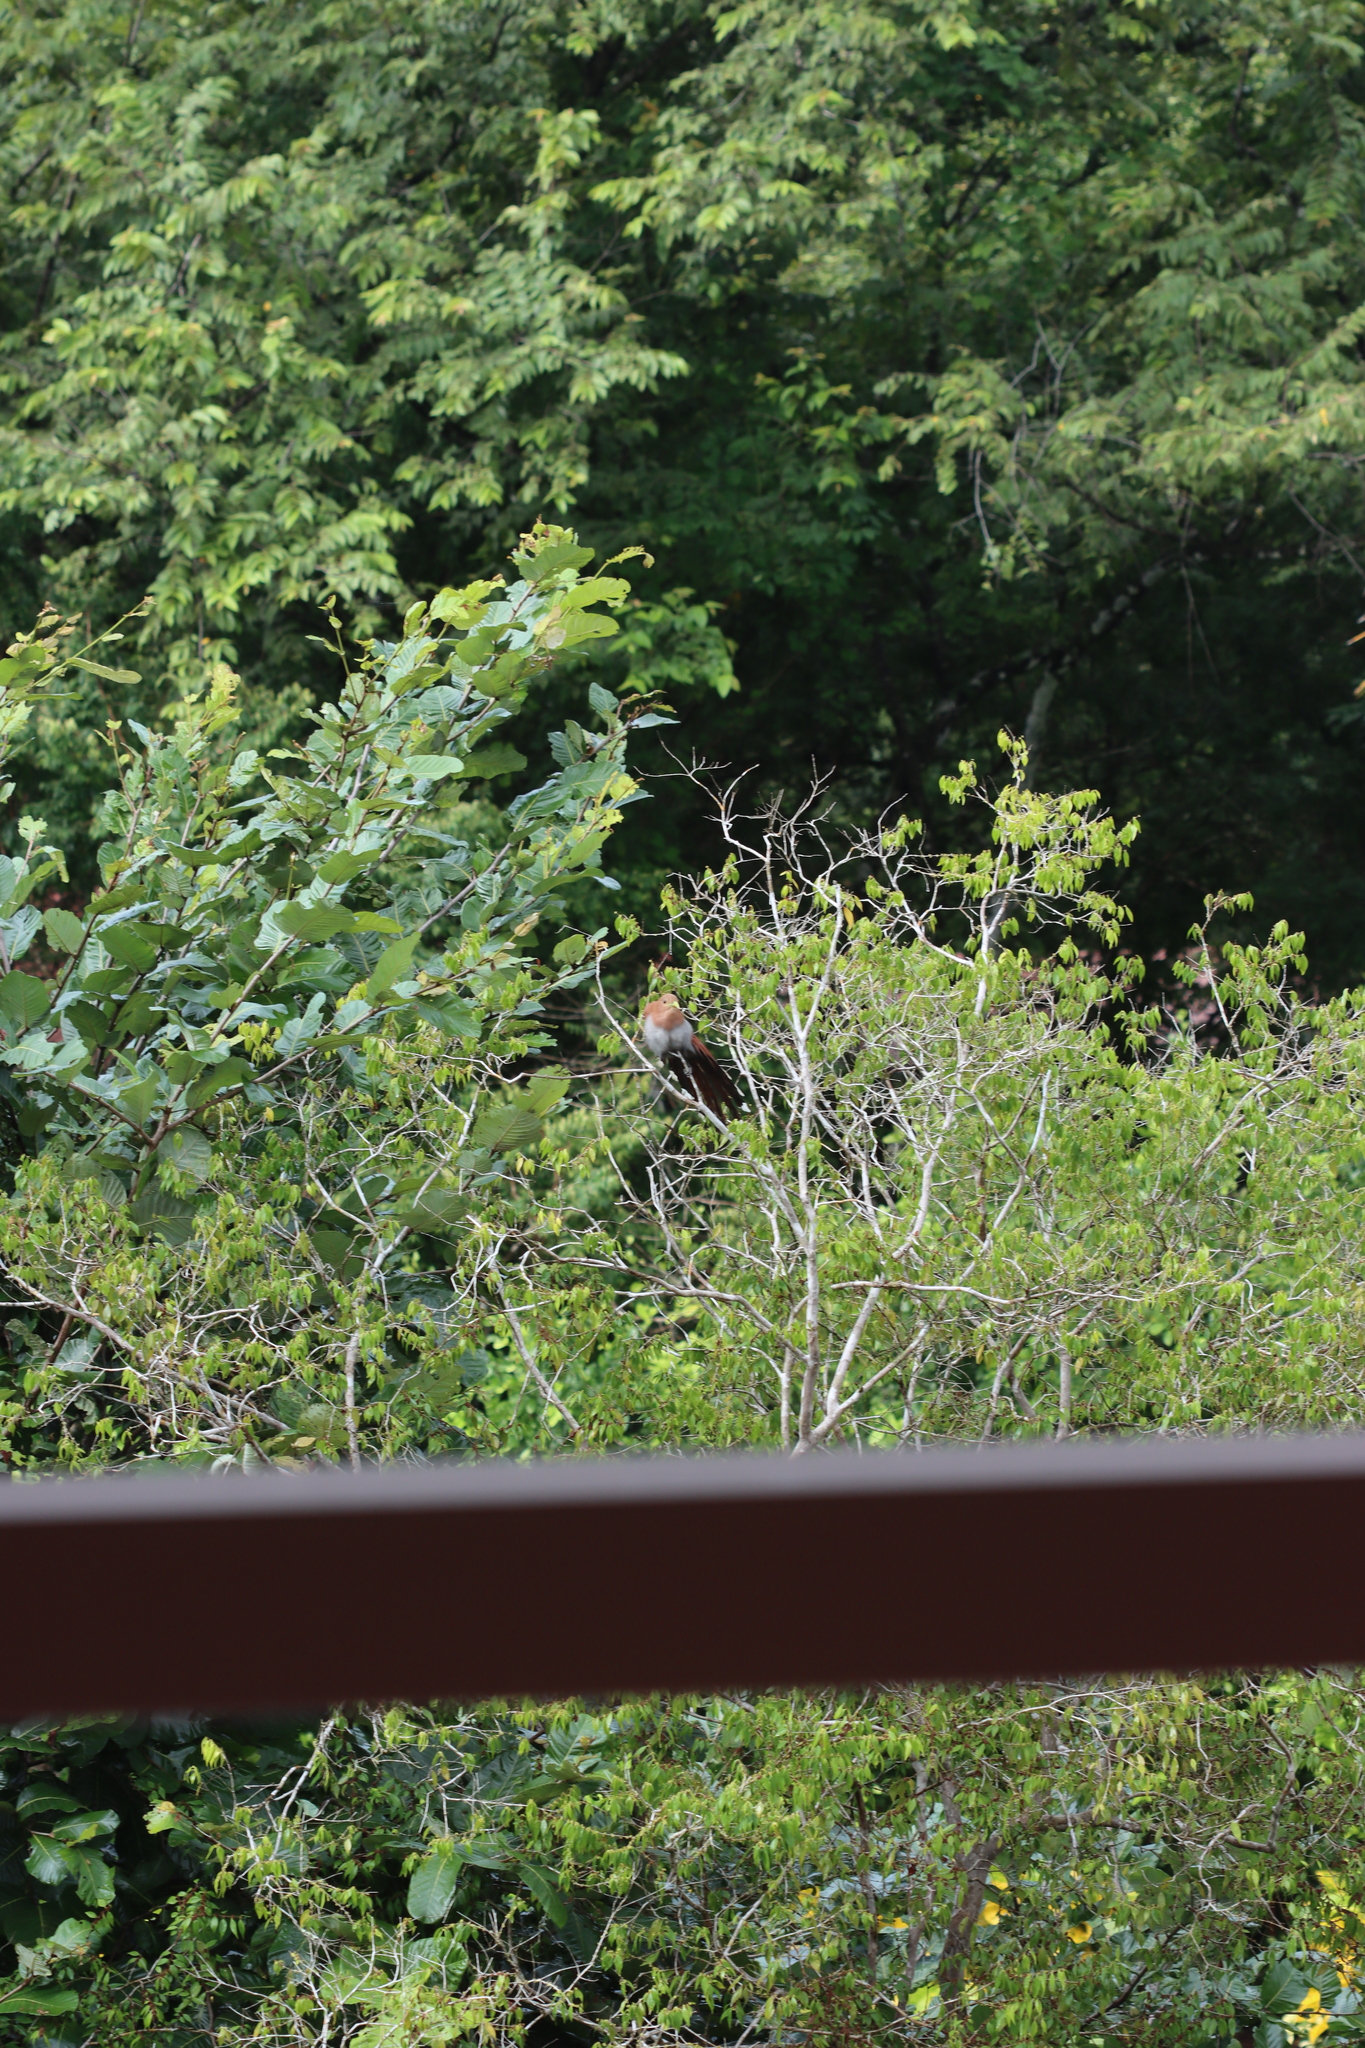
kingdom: Animalia
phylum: Chordata
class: Aves
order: Cuculiformes
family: Cuculidae
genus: Piaya
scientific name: Piaya cayana
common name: Squirrel cuckoo
